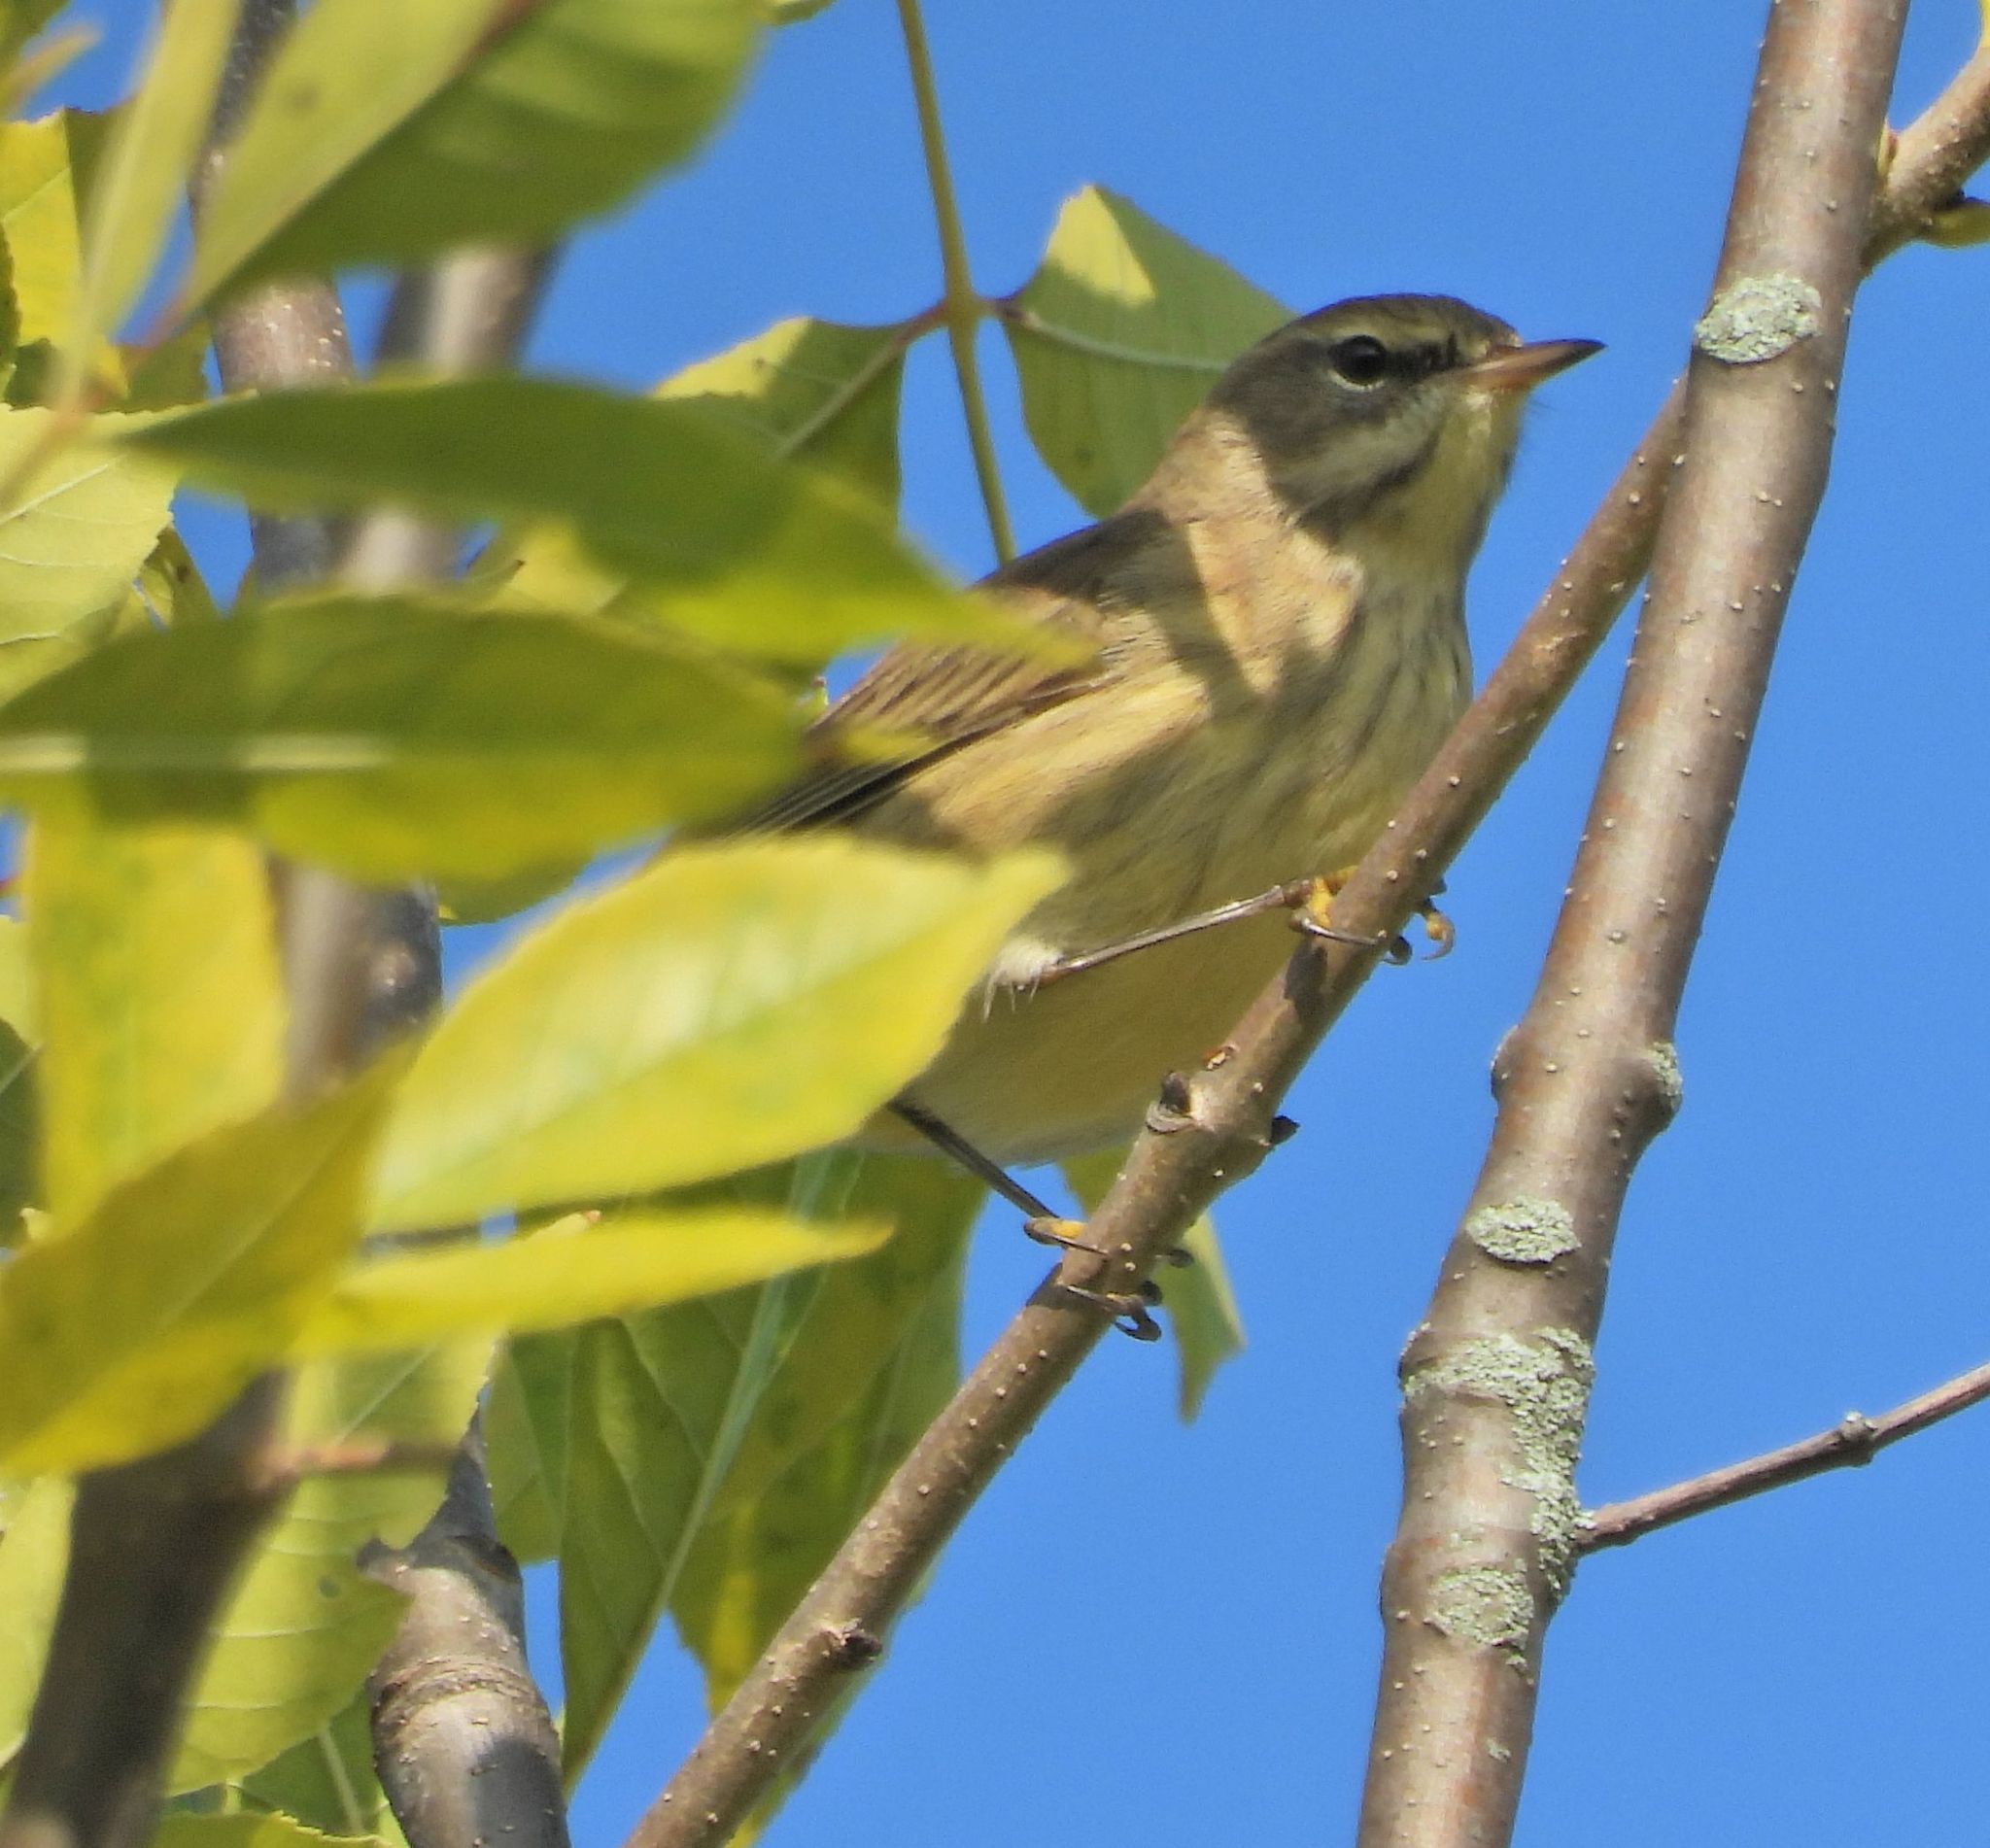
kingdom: Animalia
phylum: Chordata
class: Aves
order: Passeriformes
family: Parulidae
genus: Setophaga
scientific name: Setophaga palmarum
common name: Palm warbler
